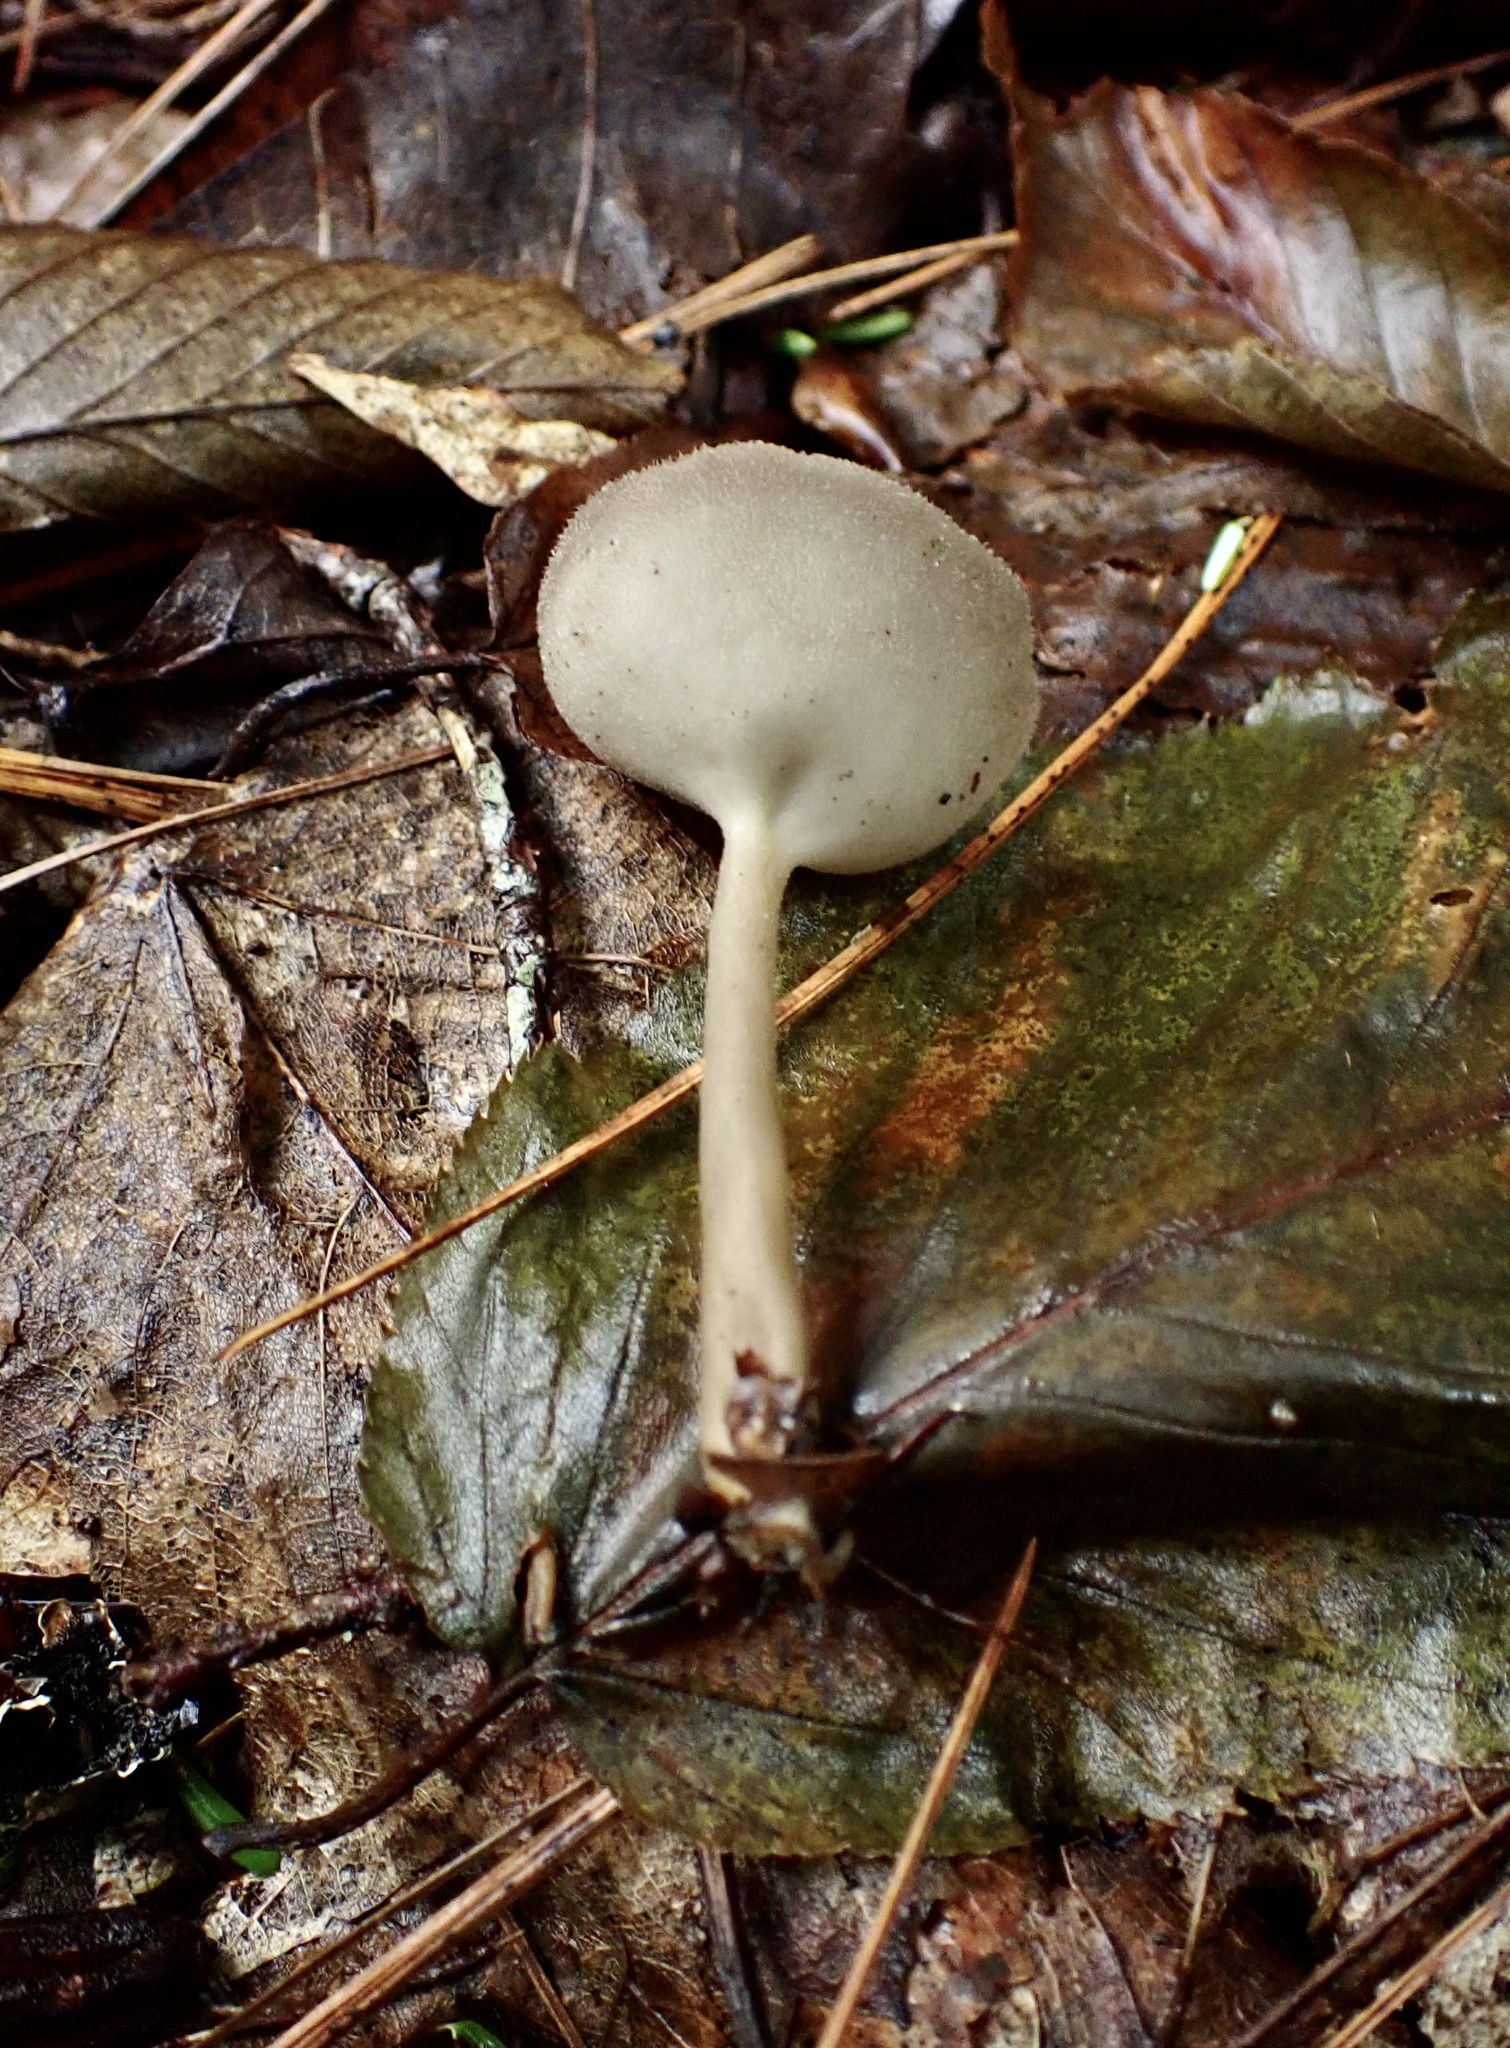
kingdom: Fungi
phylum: Ascomycota
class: Pezizomycetes
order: Pezizales
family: Helvellaceae
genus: Helvella
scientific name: Helvella macropus
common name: Felt saddle
